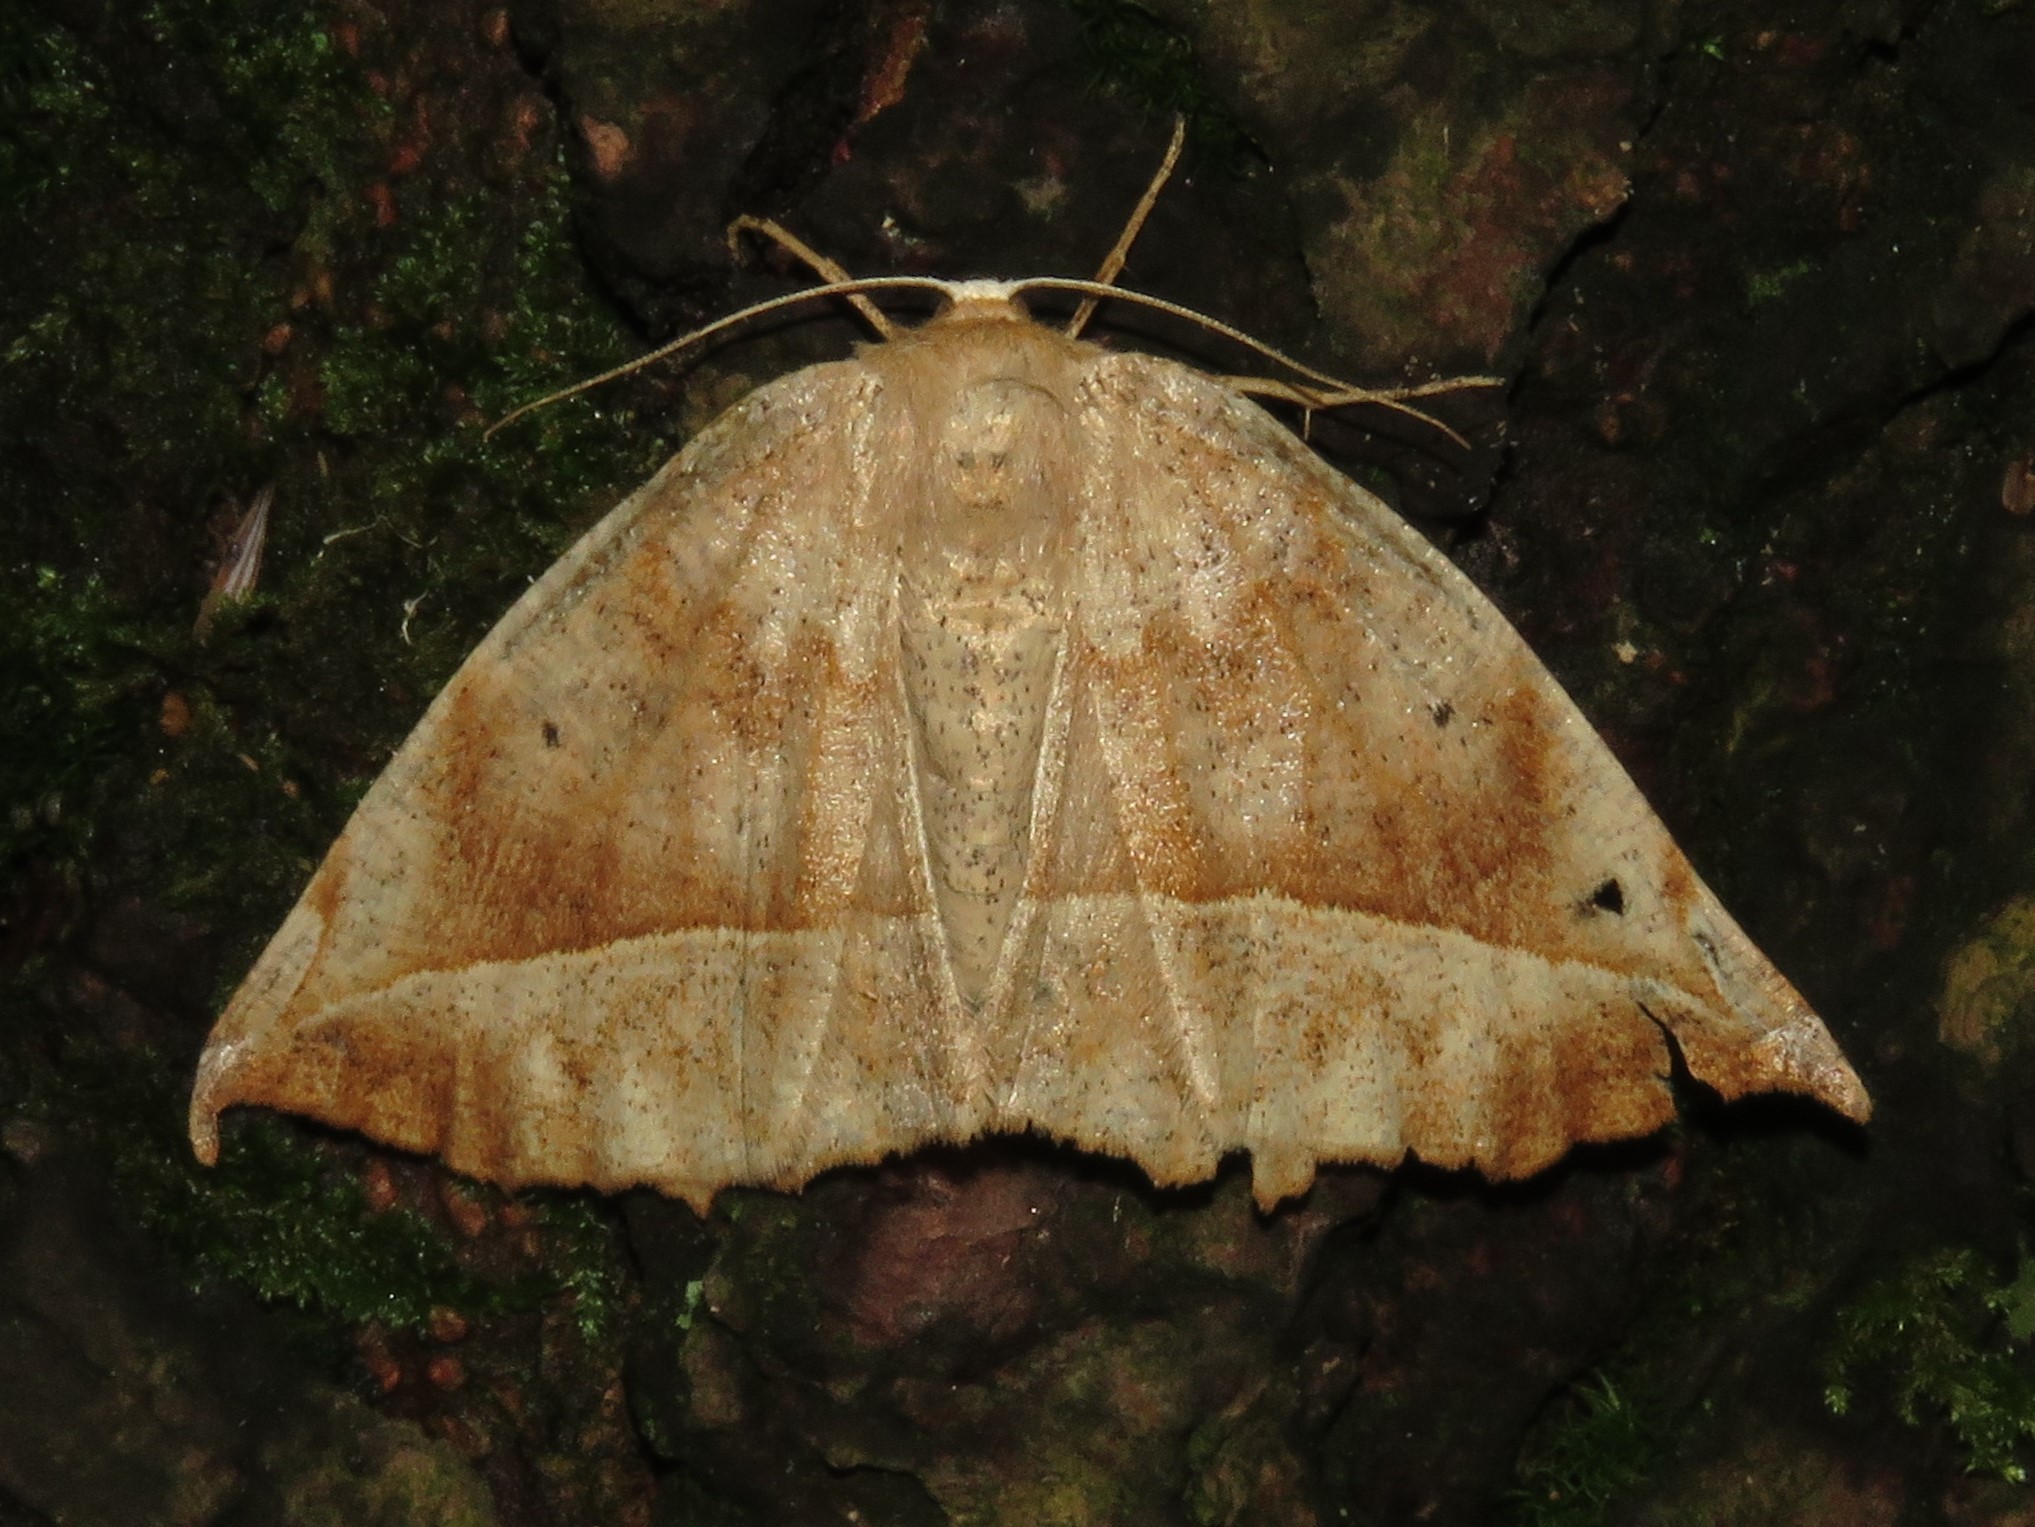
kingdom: Animalia
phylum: Arthropoda
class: Insecta
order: Lepidoptera
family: Geometridae
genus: Eutrapela
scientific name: Eutrapela clemataria
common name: Curved-toothed geometer
